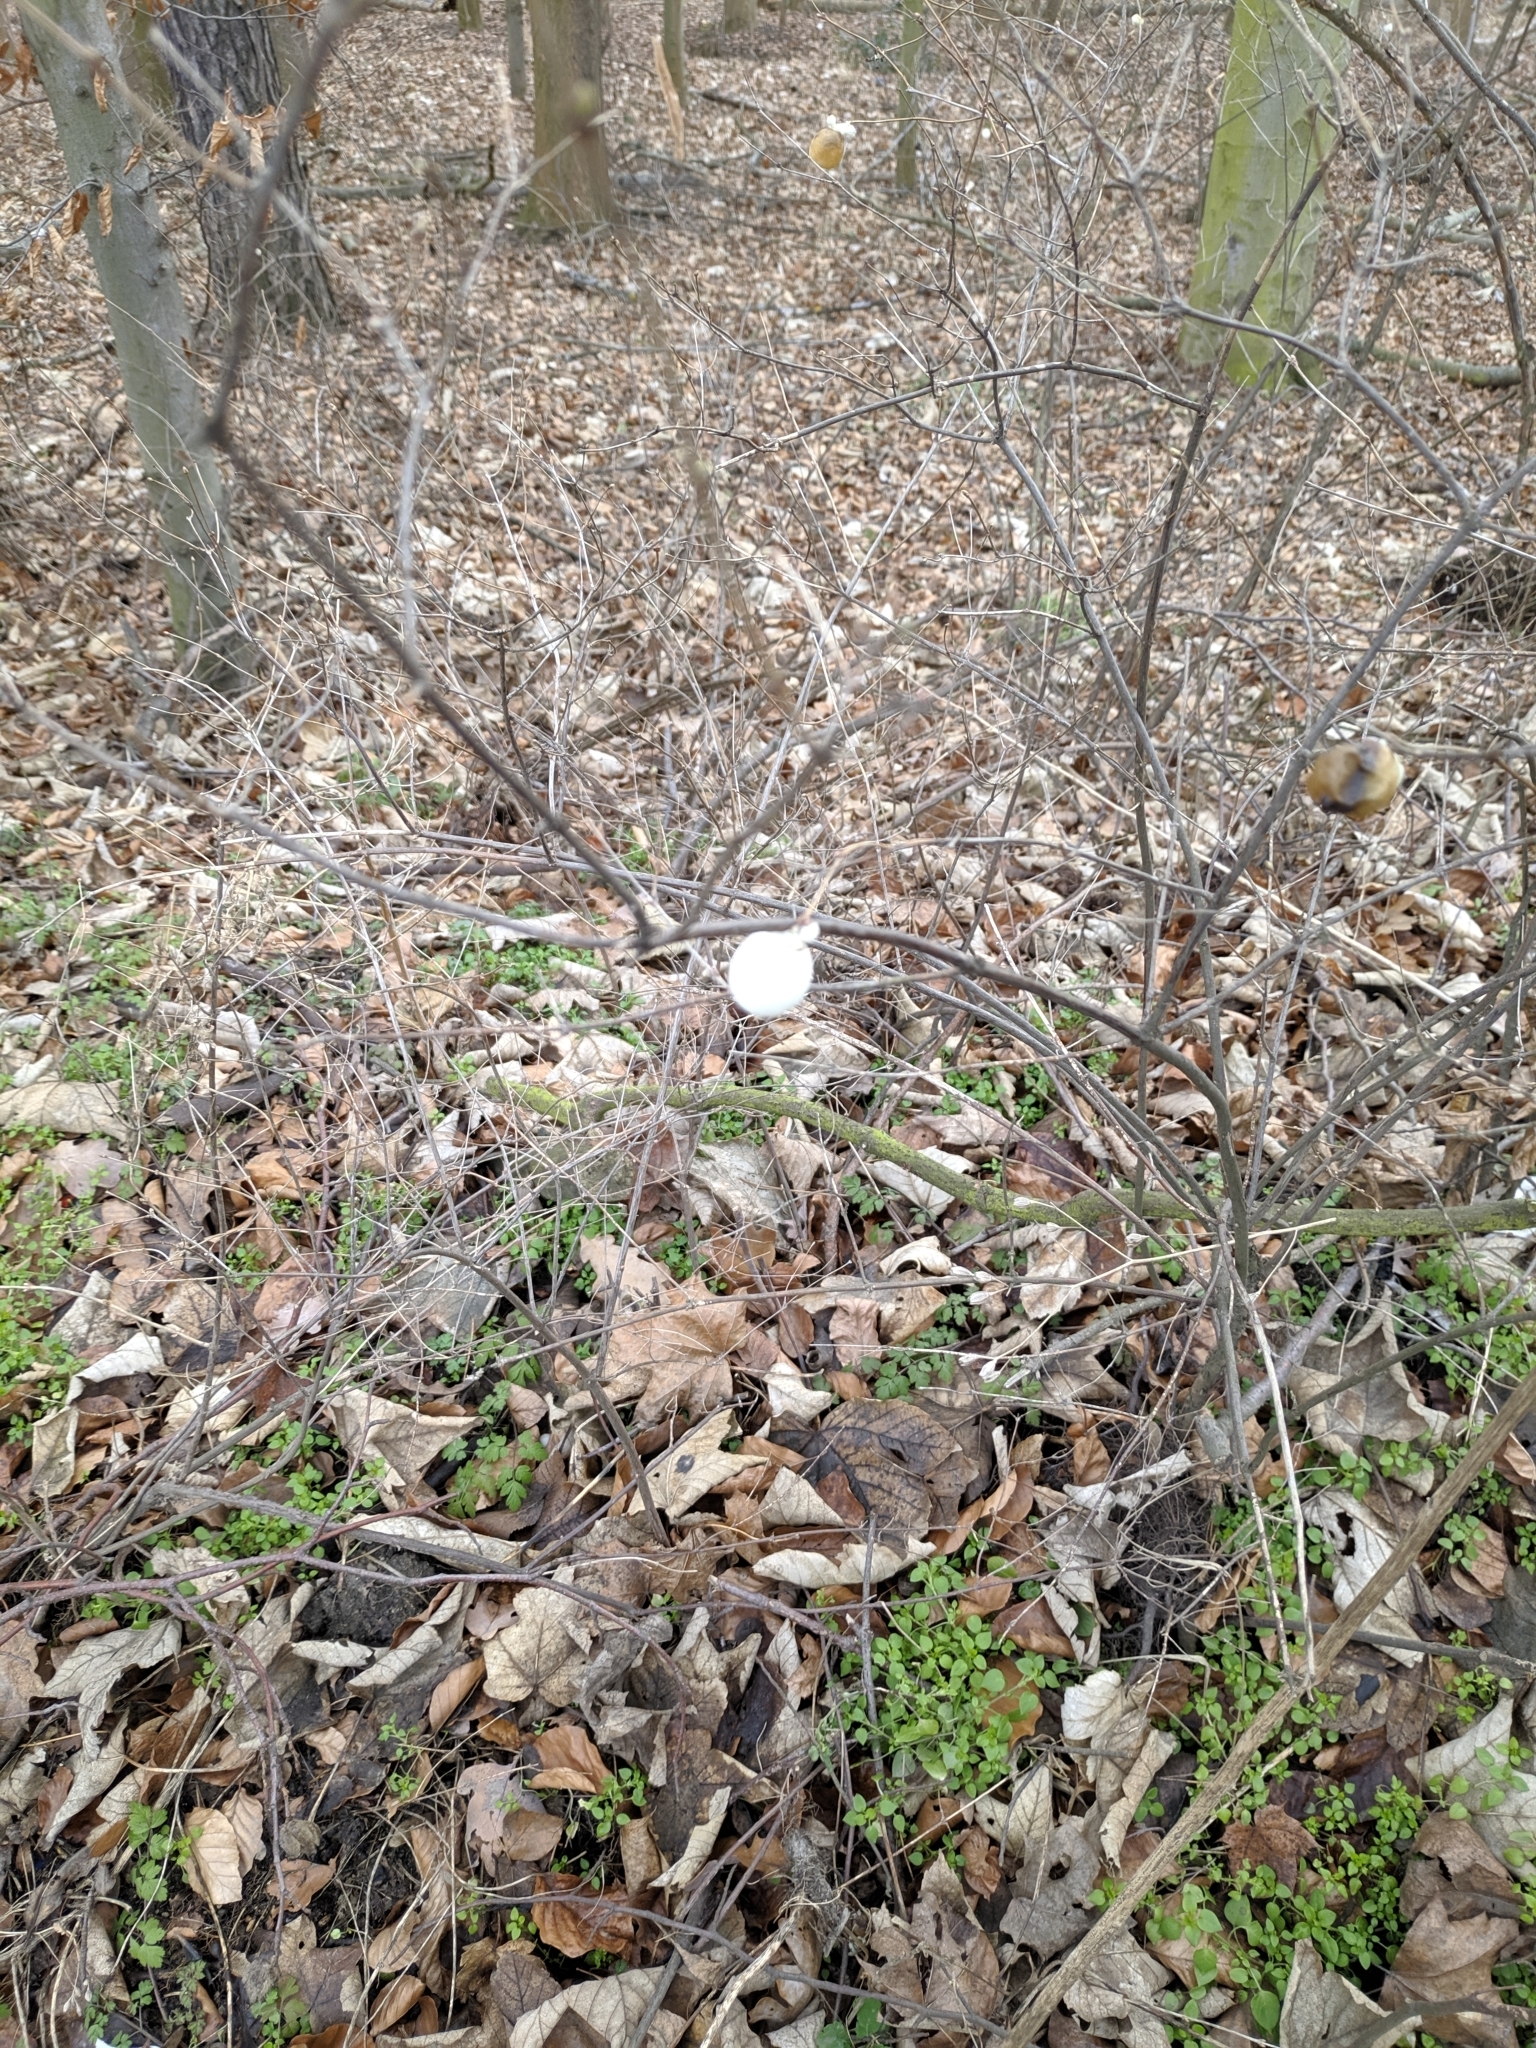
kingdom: Plantae
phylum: Tracheophyta
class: Magnoliopsida
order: Dipsacales
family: Caprifoliaceae
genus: Symphoricarpos
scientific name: Symphoricarpos albus
